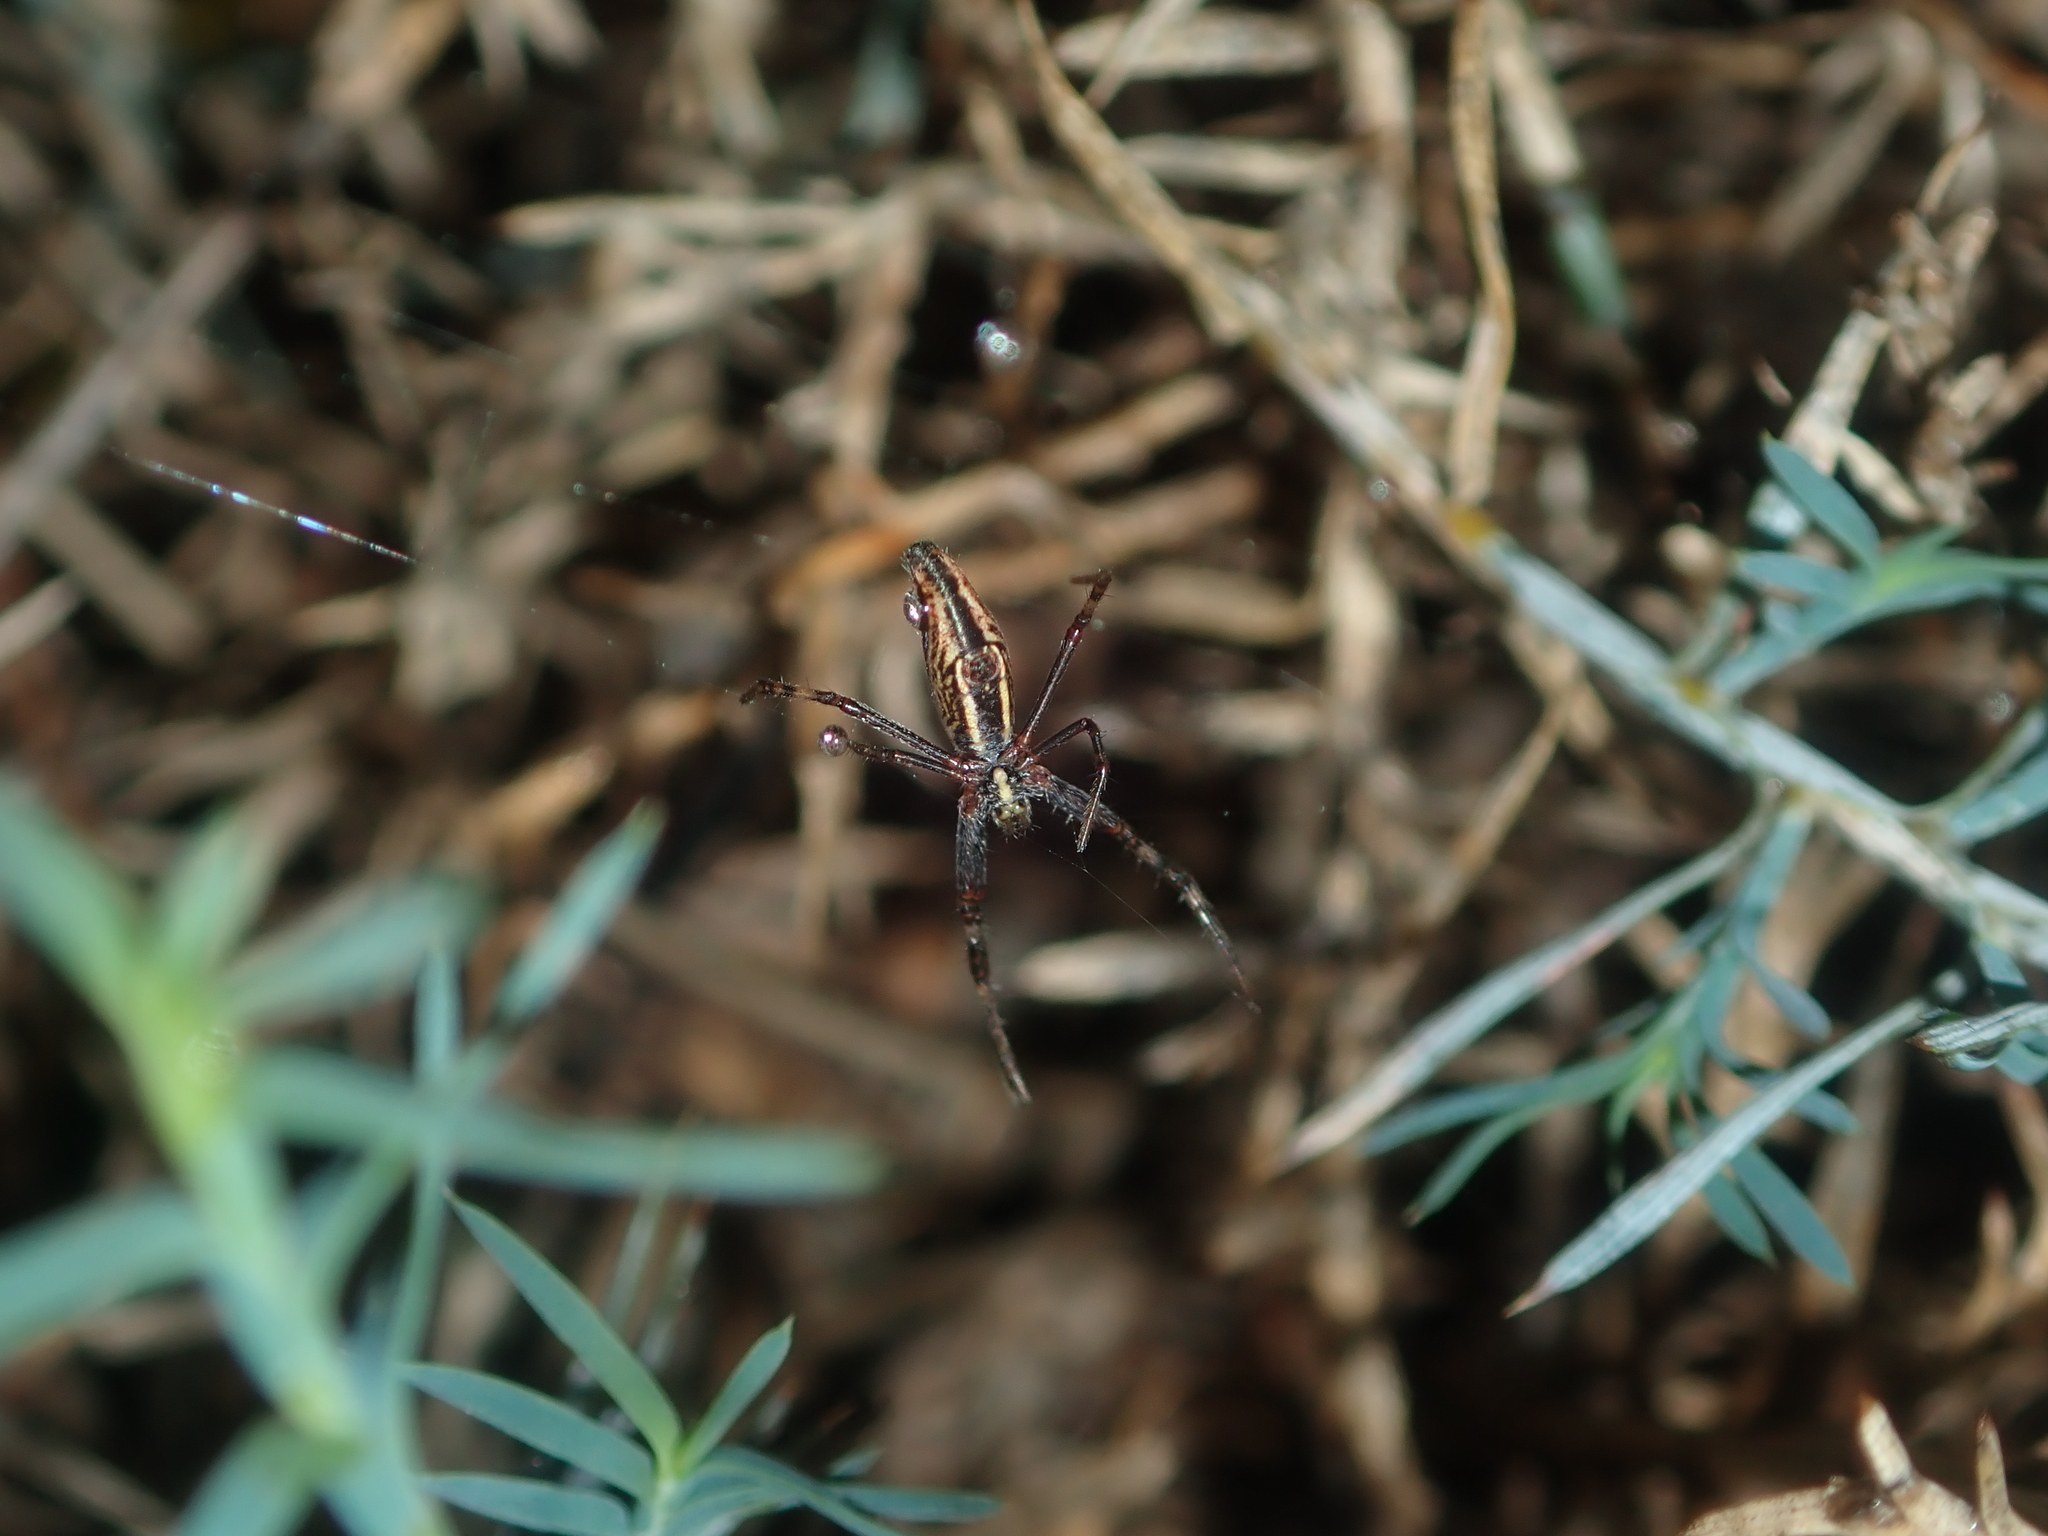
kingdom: Animalia
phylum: Arthropoda
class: Arachnida
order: Araneae
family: Araneidae
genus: Argiope
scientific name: Argiope protensa
